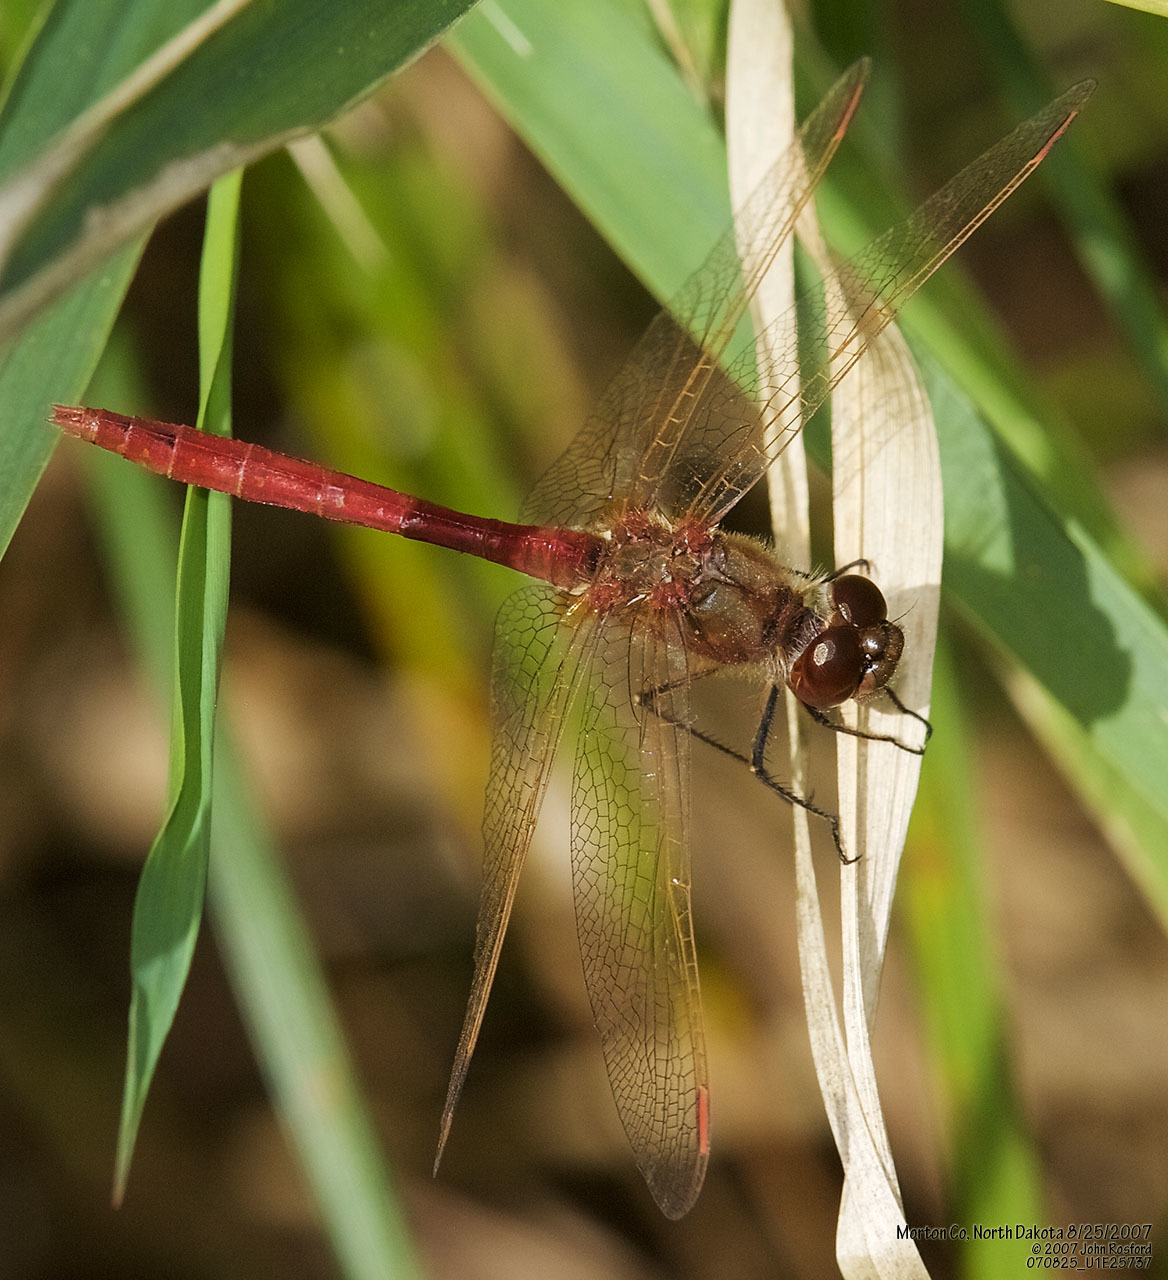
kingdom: Animalia
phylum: Arthropoda
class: Insecta
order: Odonata
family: Libellulidae
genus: Sympetrum
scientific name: Sympetrum costiferum
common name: Saffron-winged meadowhawk
